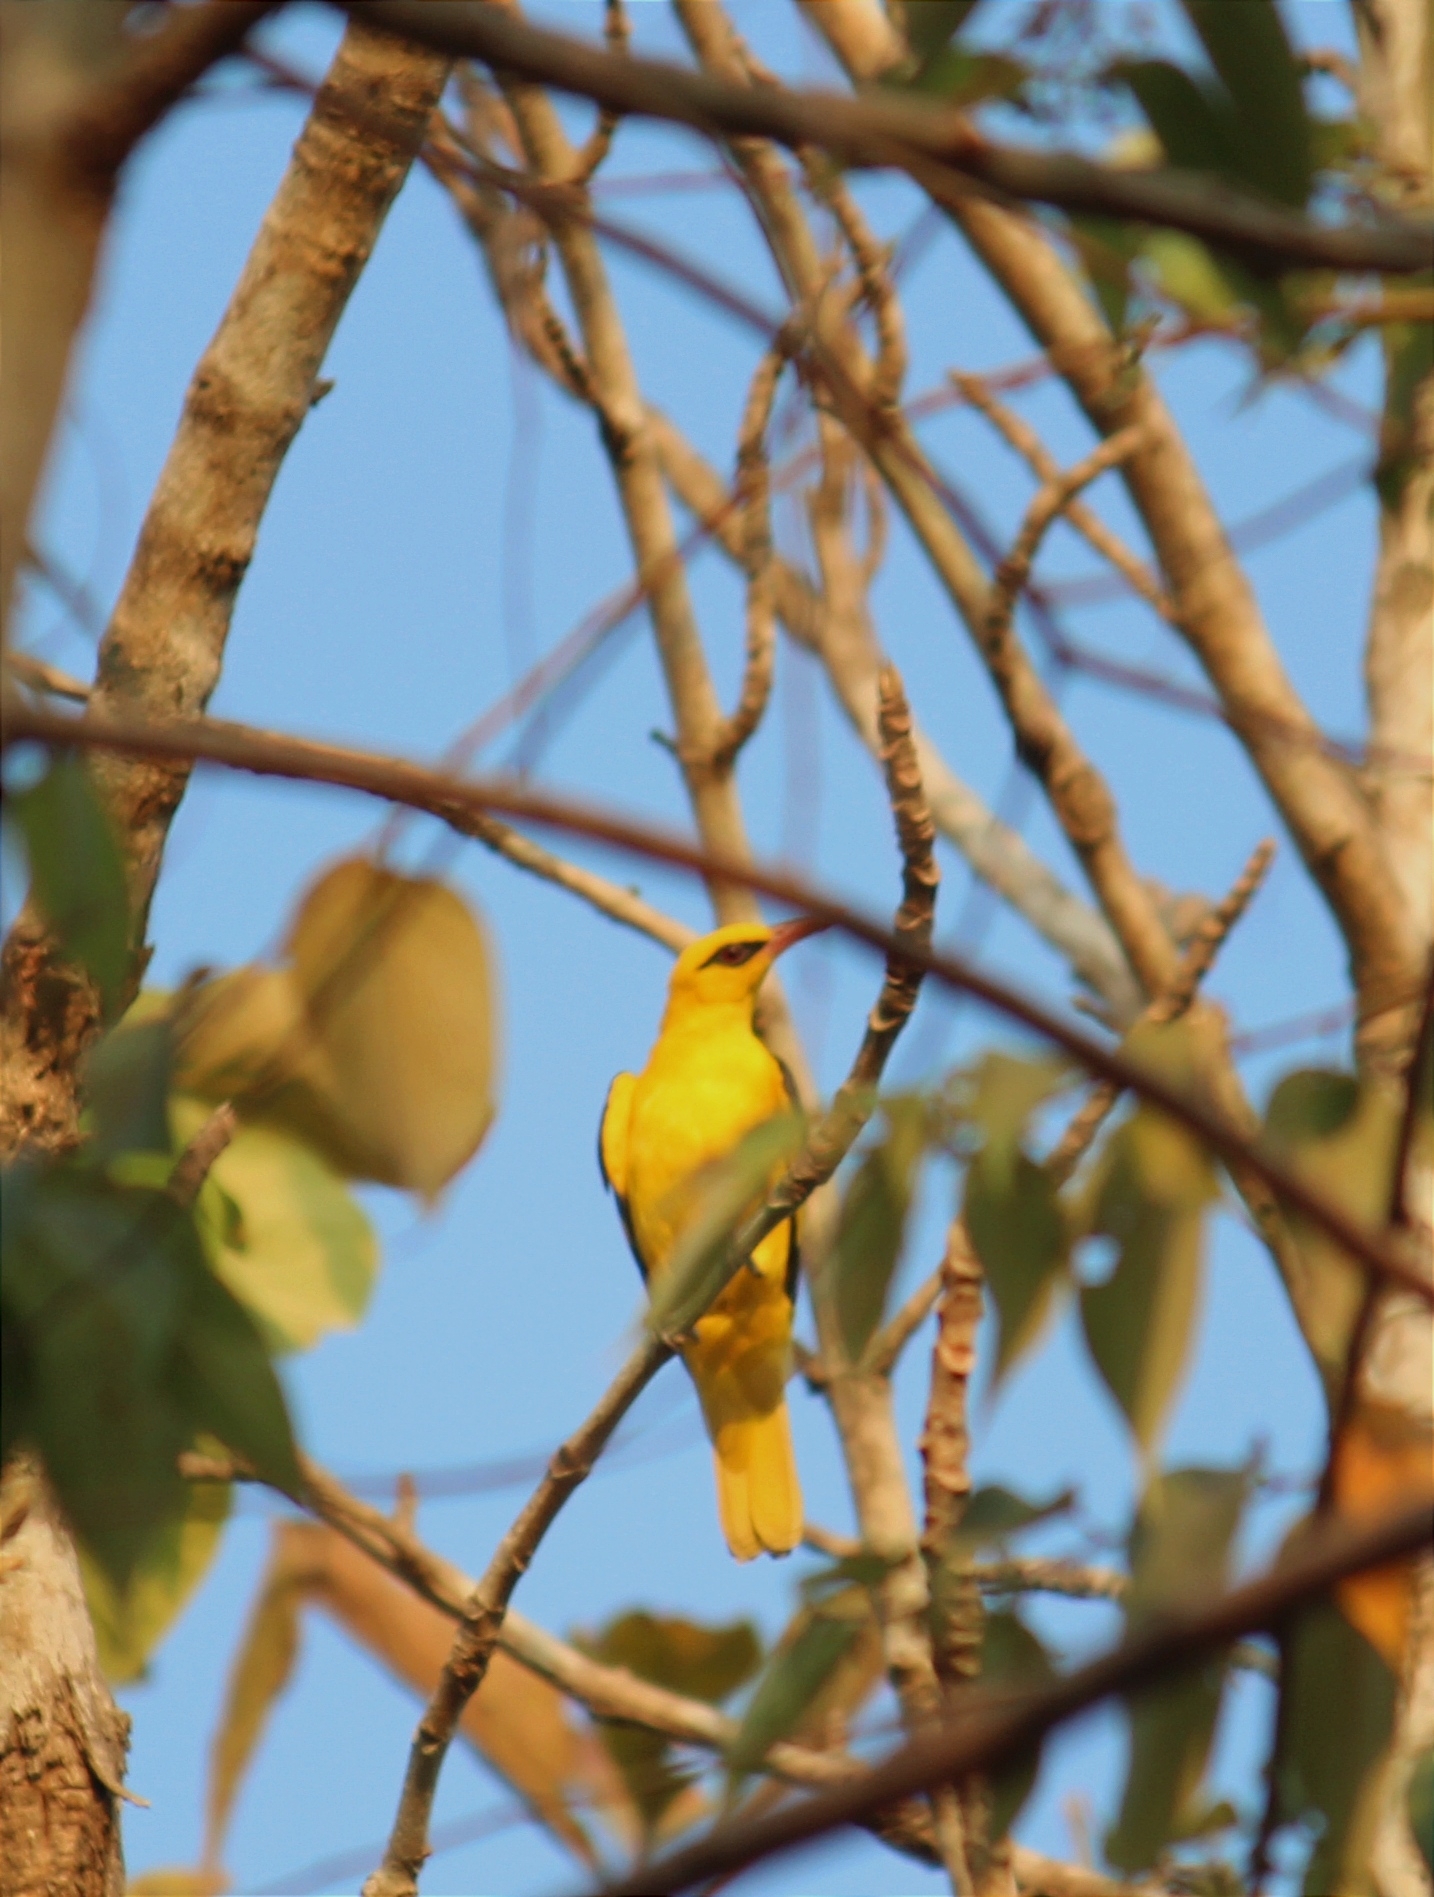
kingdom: Animalia
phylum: Chordata
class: Aves
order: Passeriformes
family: Oriolidae
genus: Oriolus
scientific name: Oriolus kundoo
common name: Indian golden oriole
